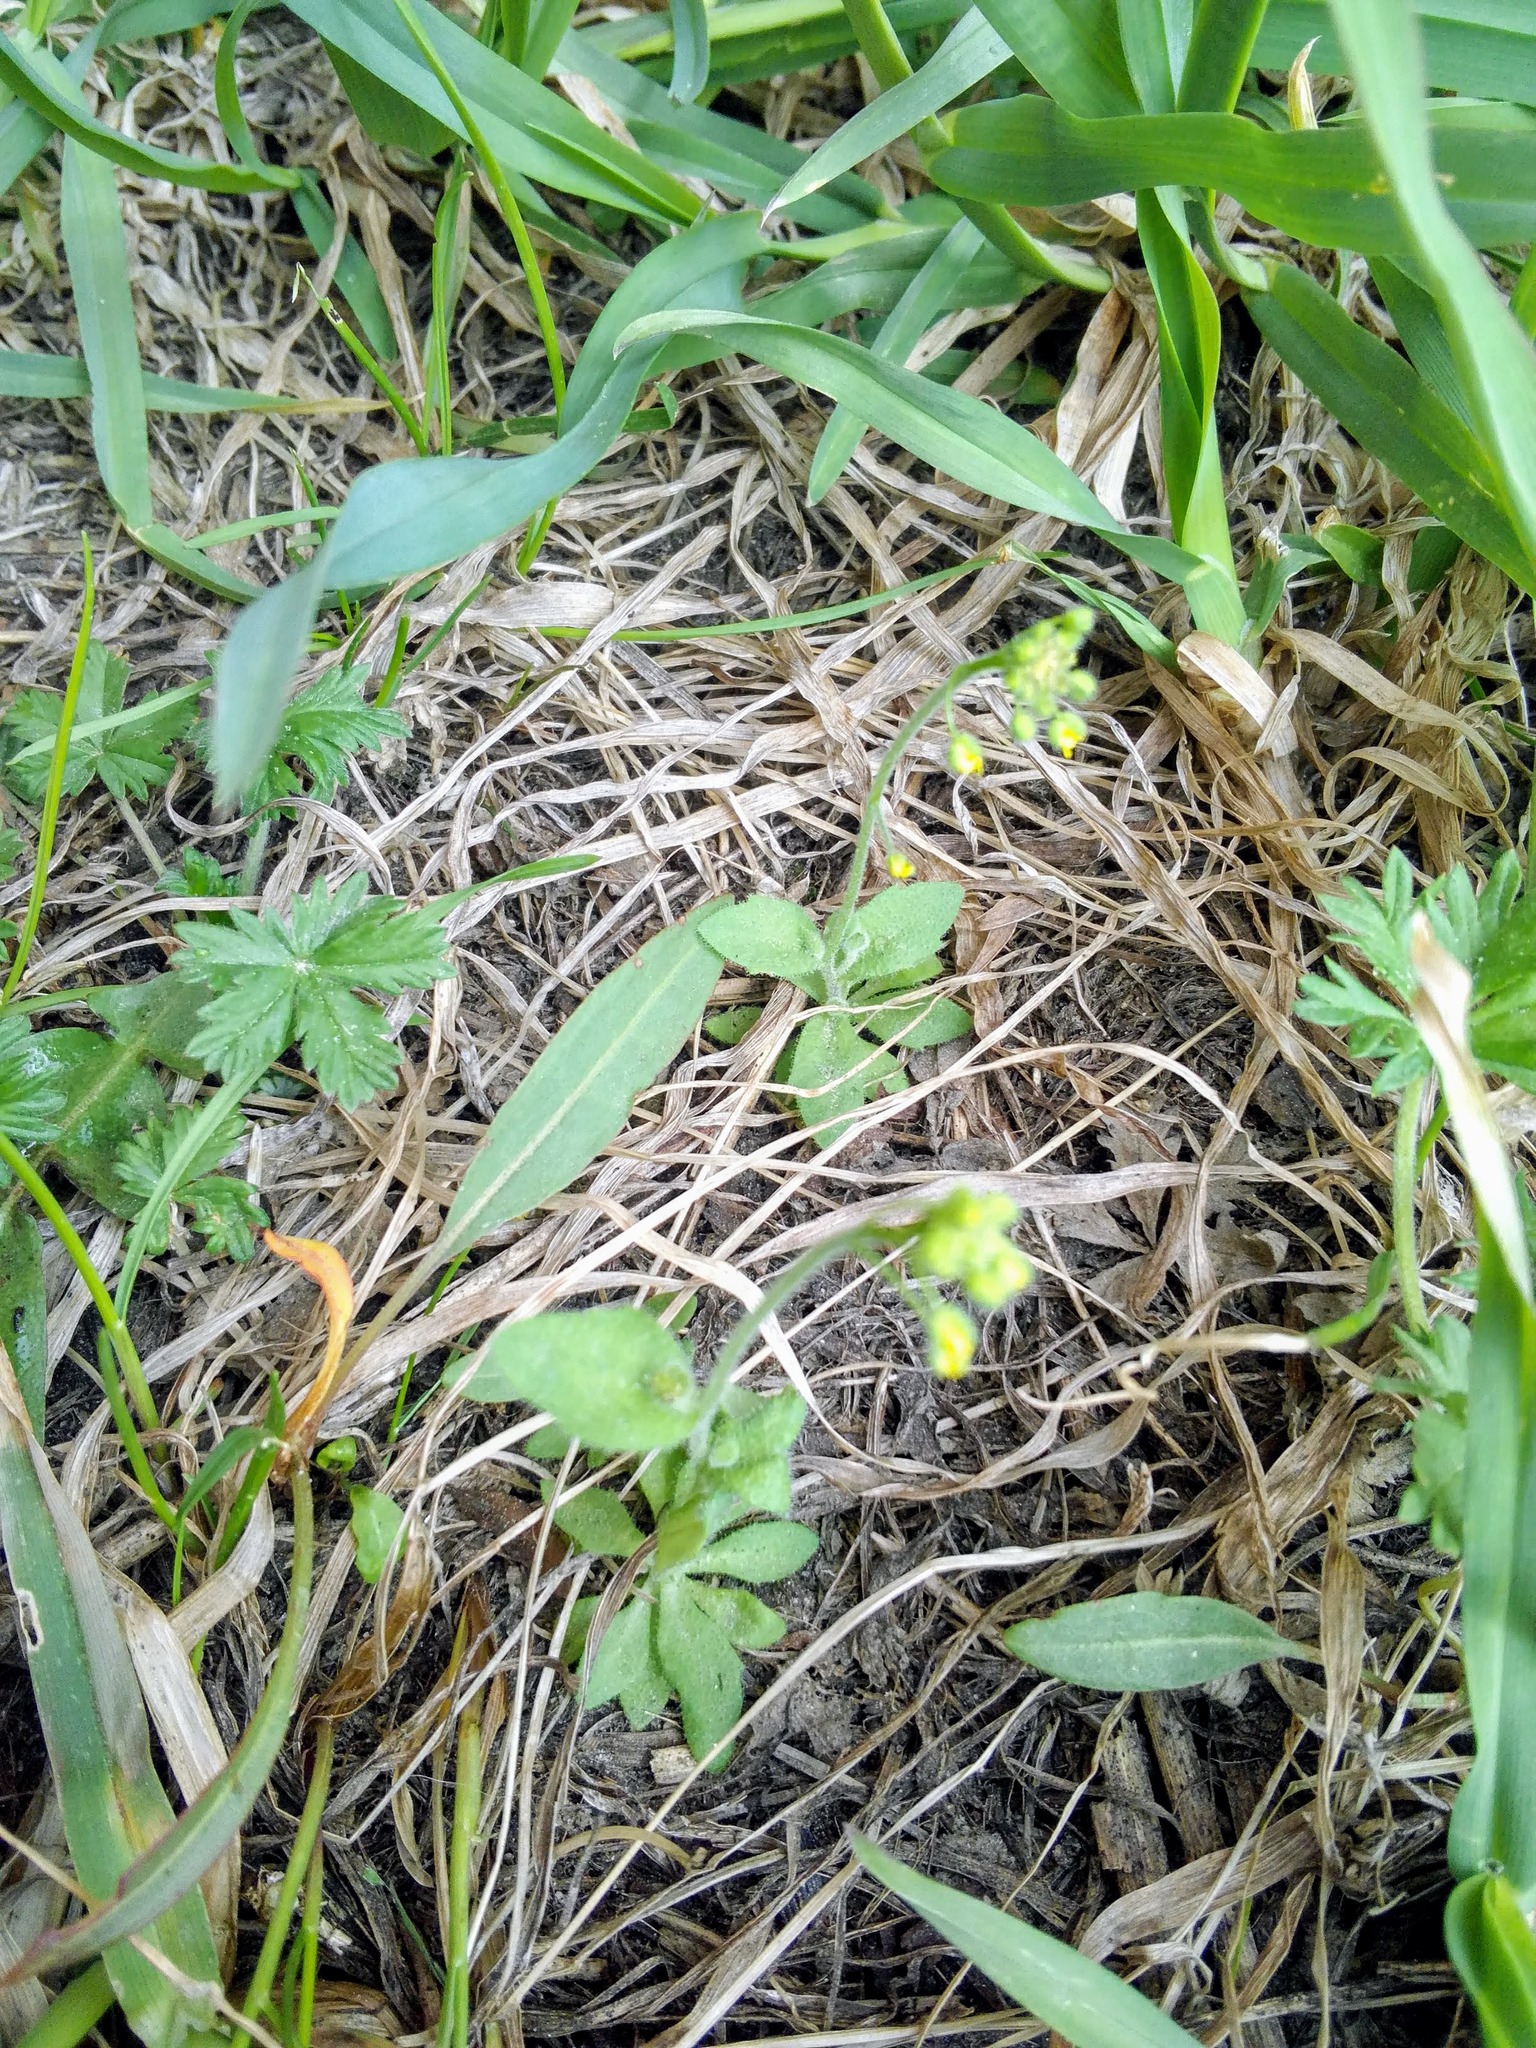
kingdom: Plantae
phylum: Tracheophyta
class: Magnoliopsida
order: Brassicales
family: Brassicaceae
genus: Draba
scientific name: Draba nemorosa
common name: Wood whitlow-grass
